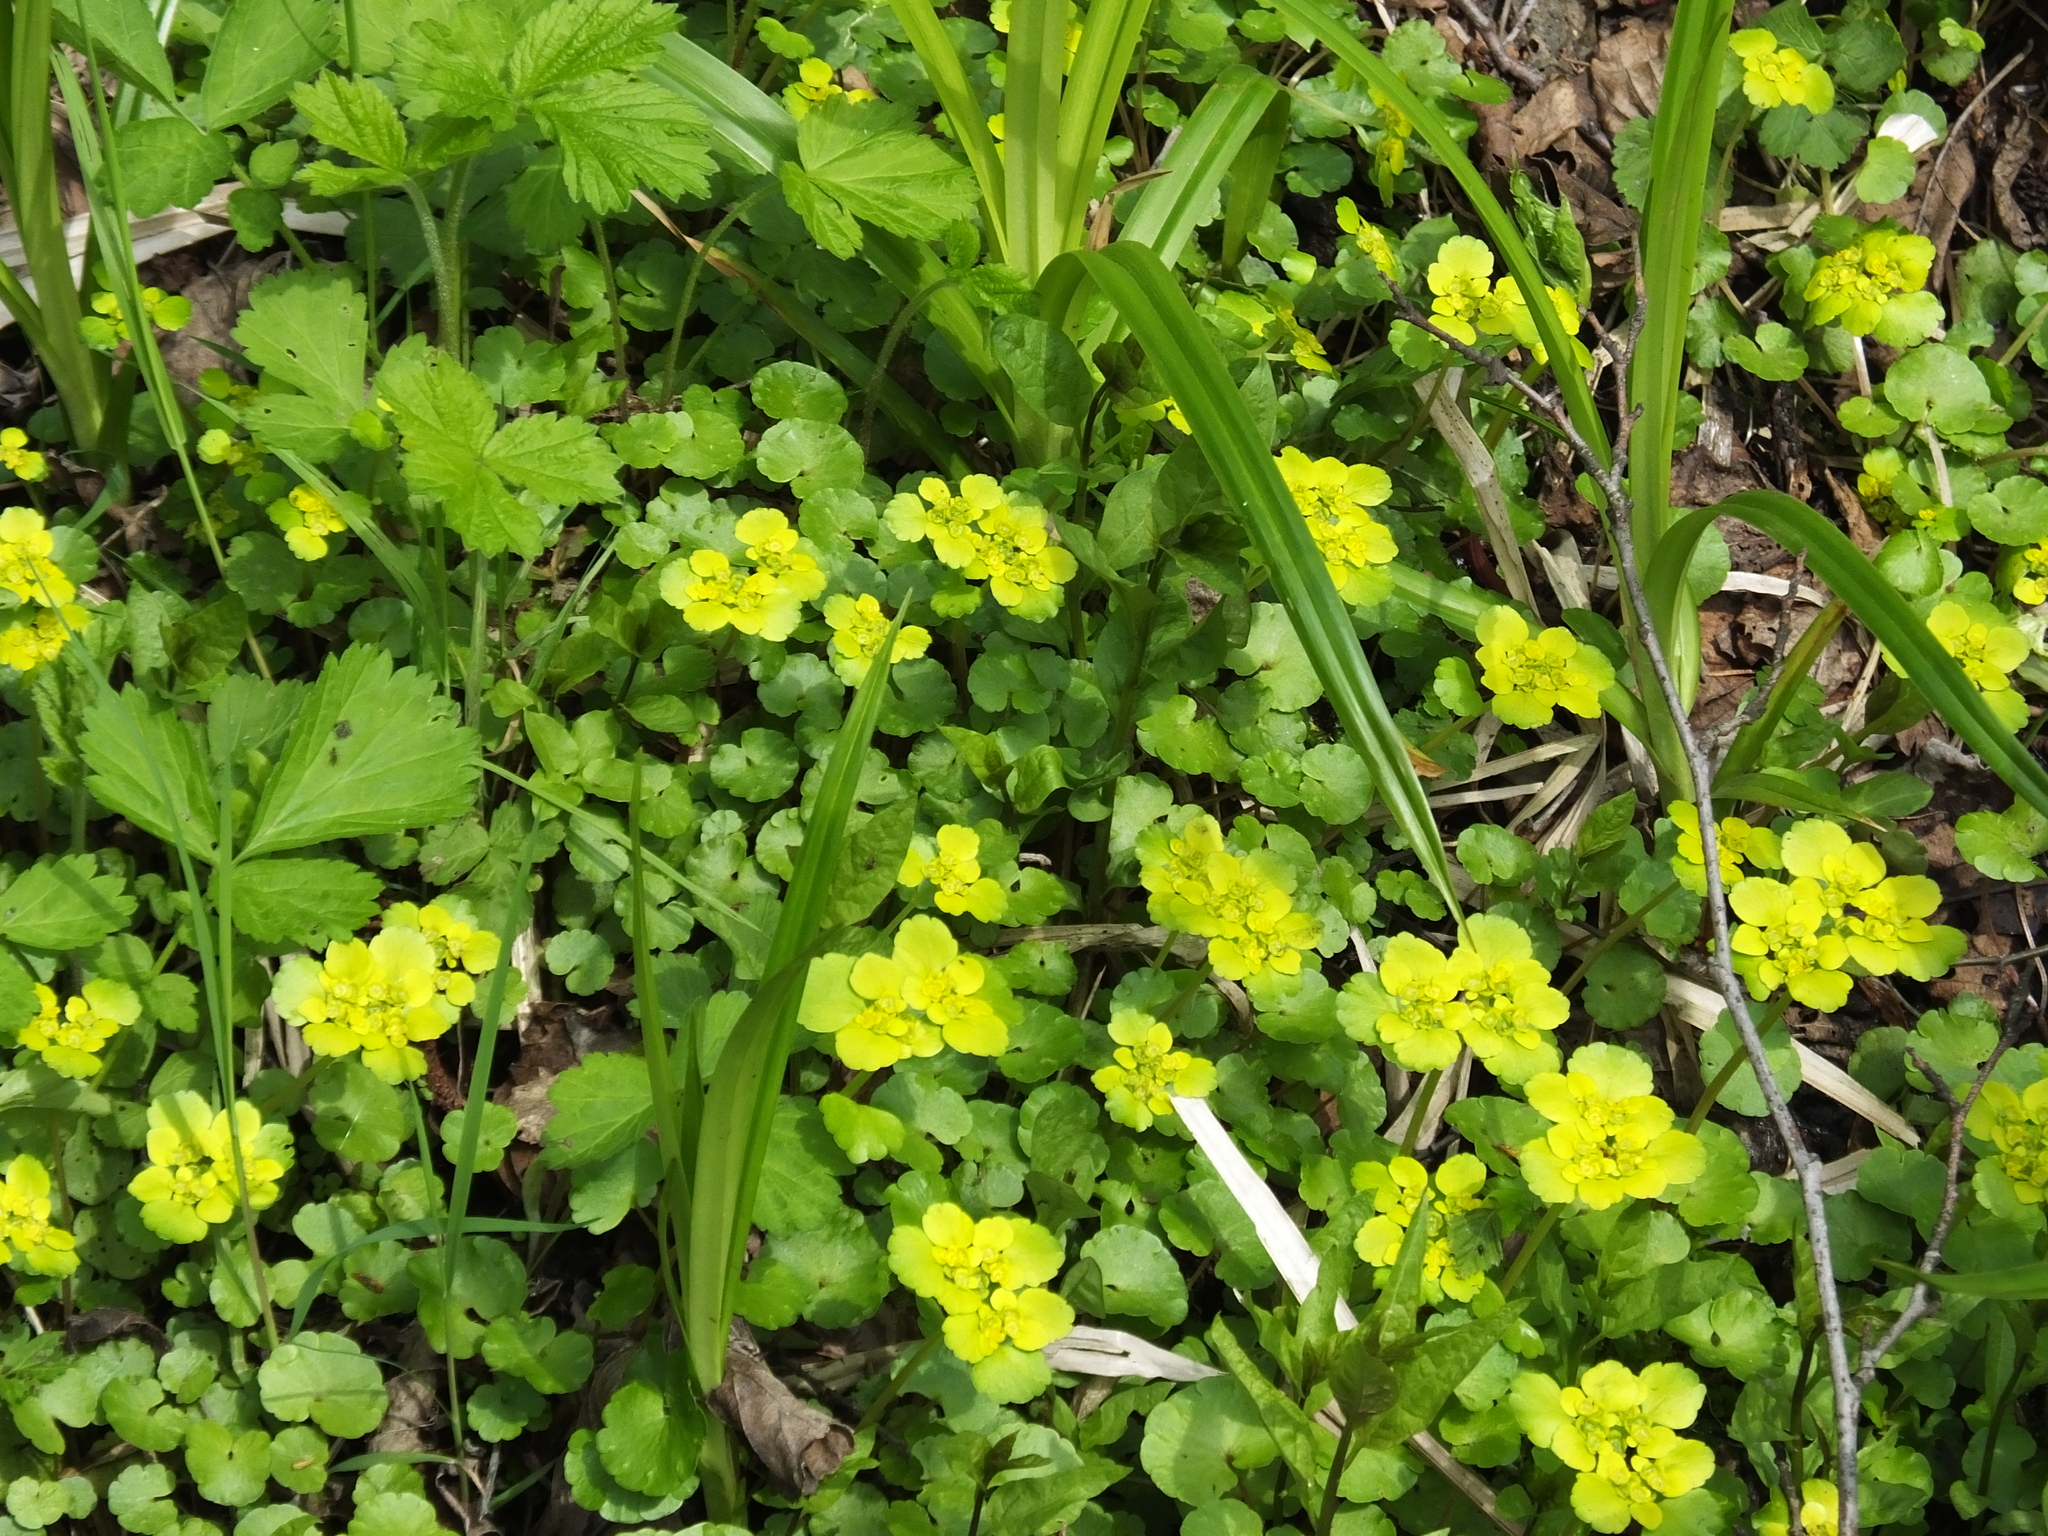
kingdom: Plantae
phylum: Tracheophyta
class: Magnoliopsida
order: Saxifragales
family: Saxifragaceae
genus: Chrysosplenium
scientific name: Chrysosplenium alternifolium
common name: Alternate-leaved golden-saxifrage
